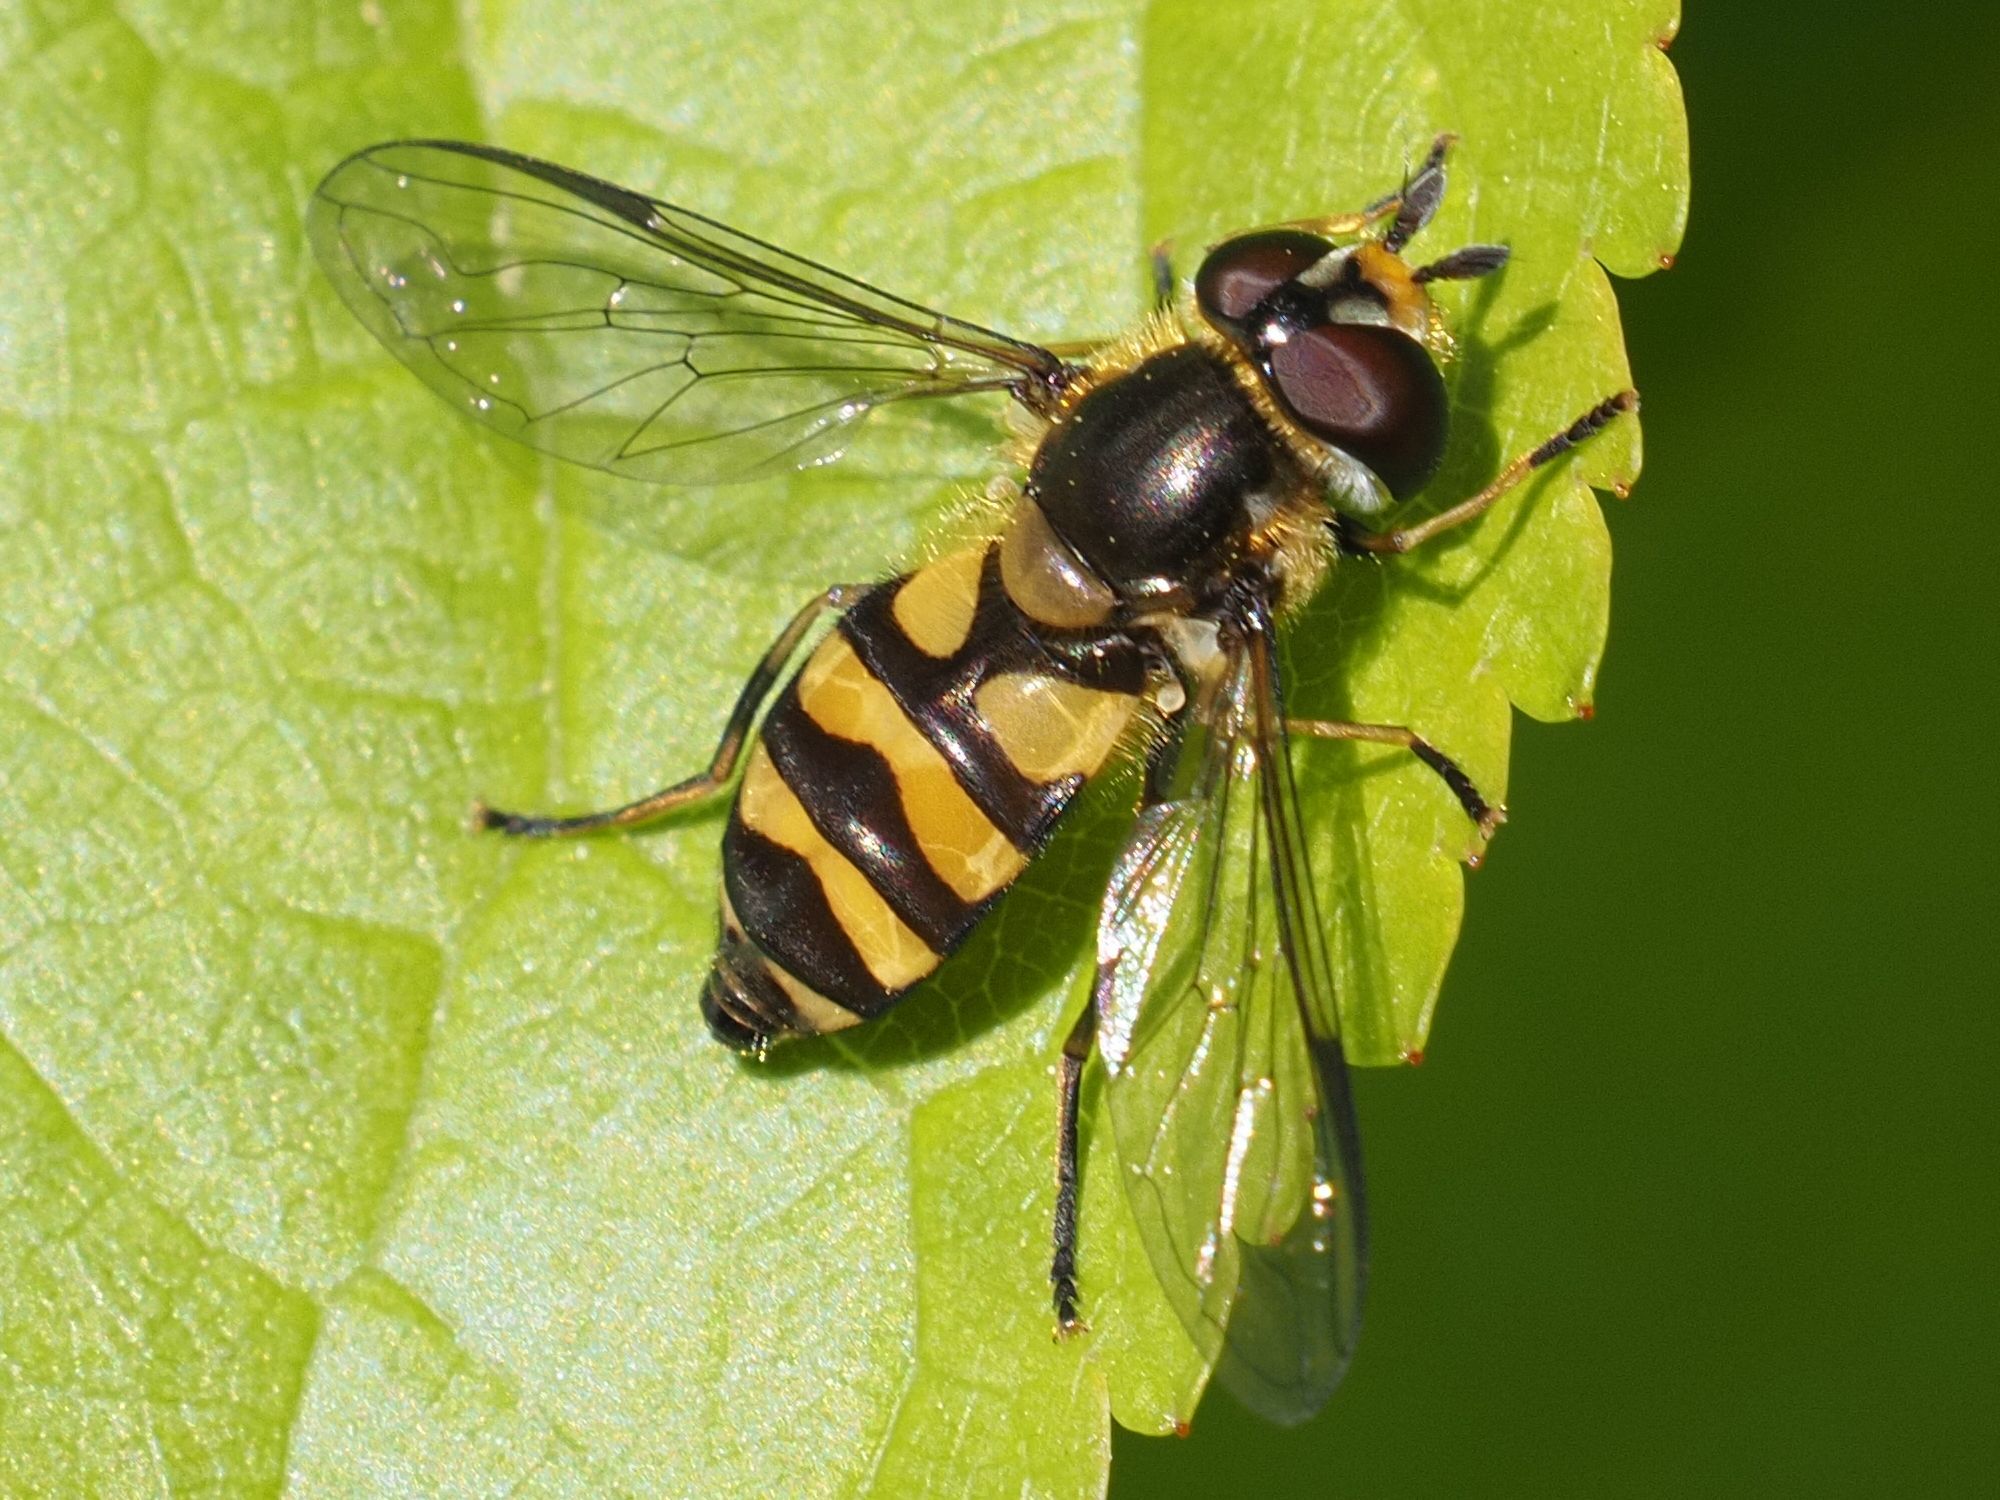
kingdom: Animalia
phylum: Arthropoda
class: Insecta
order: Diptera
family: Syrphidae
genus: Didea
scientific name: Didea fasciata
